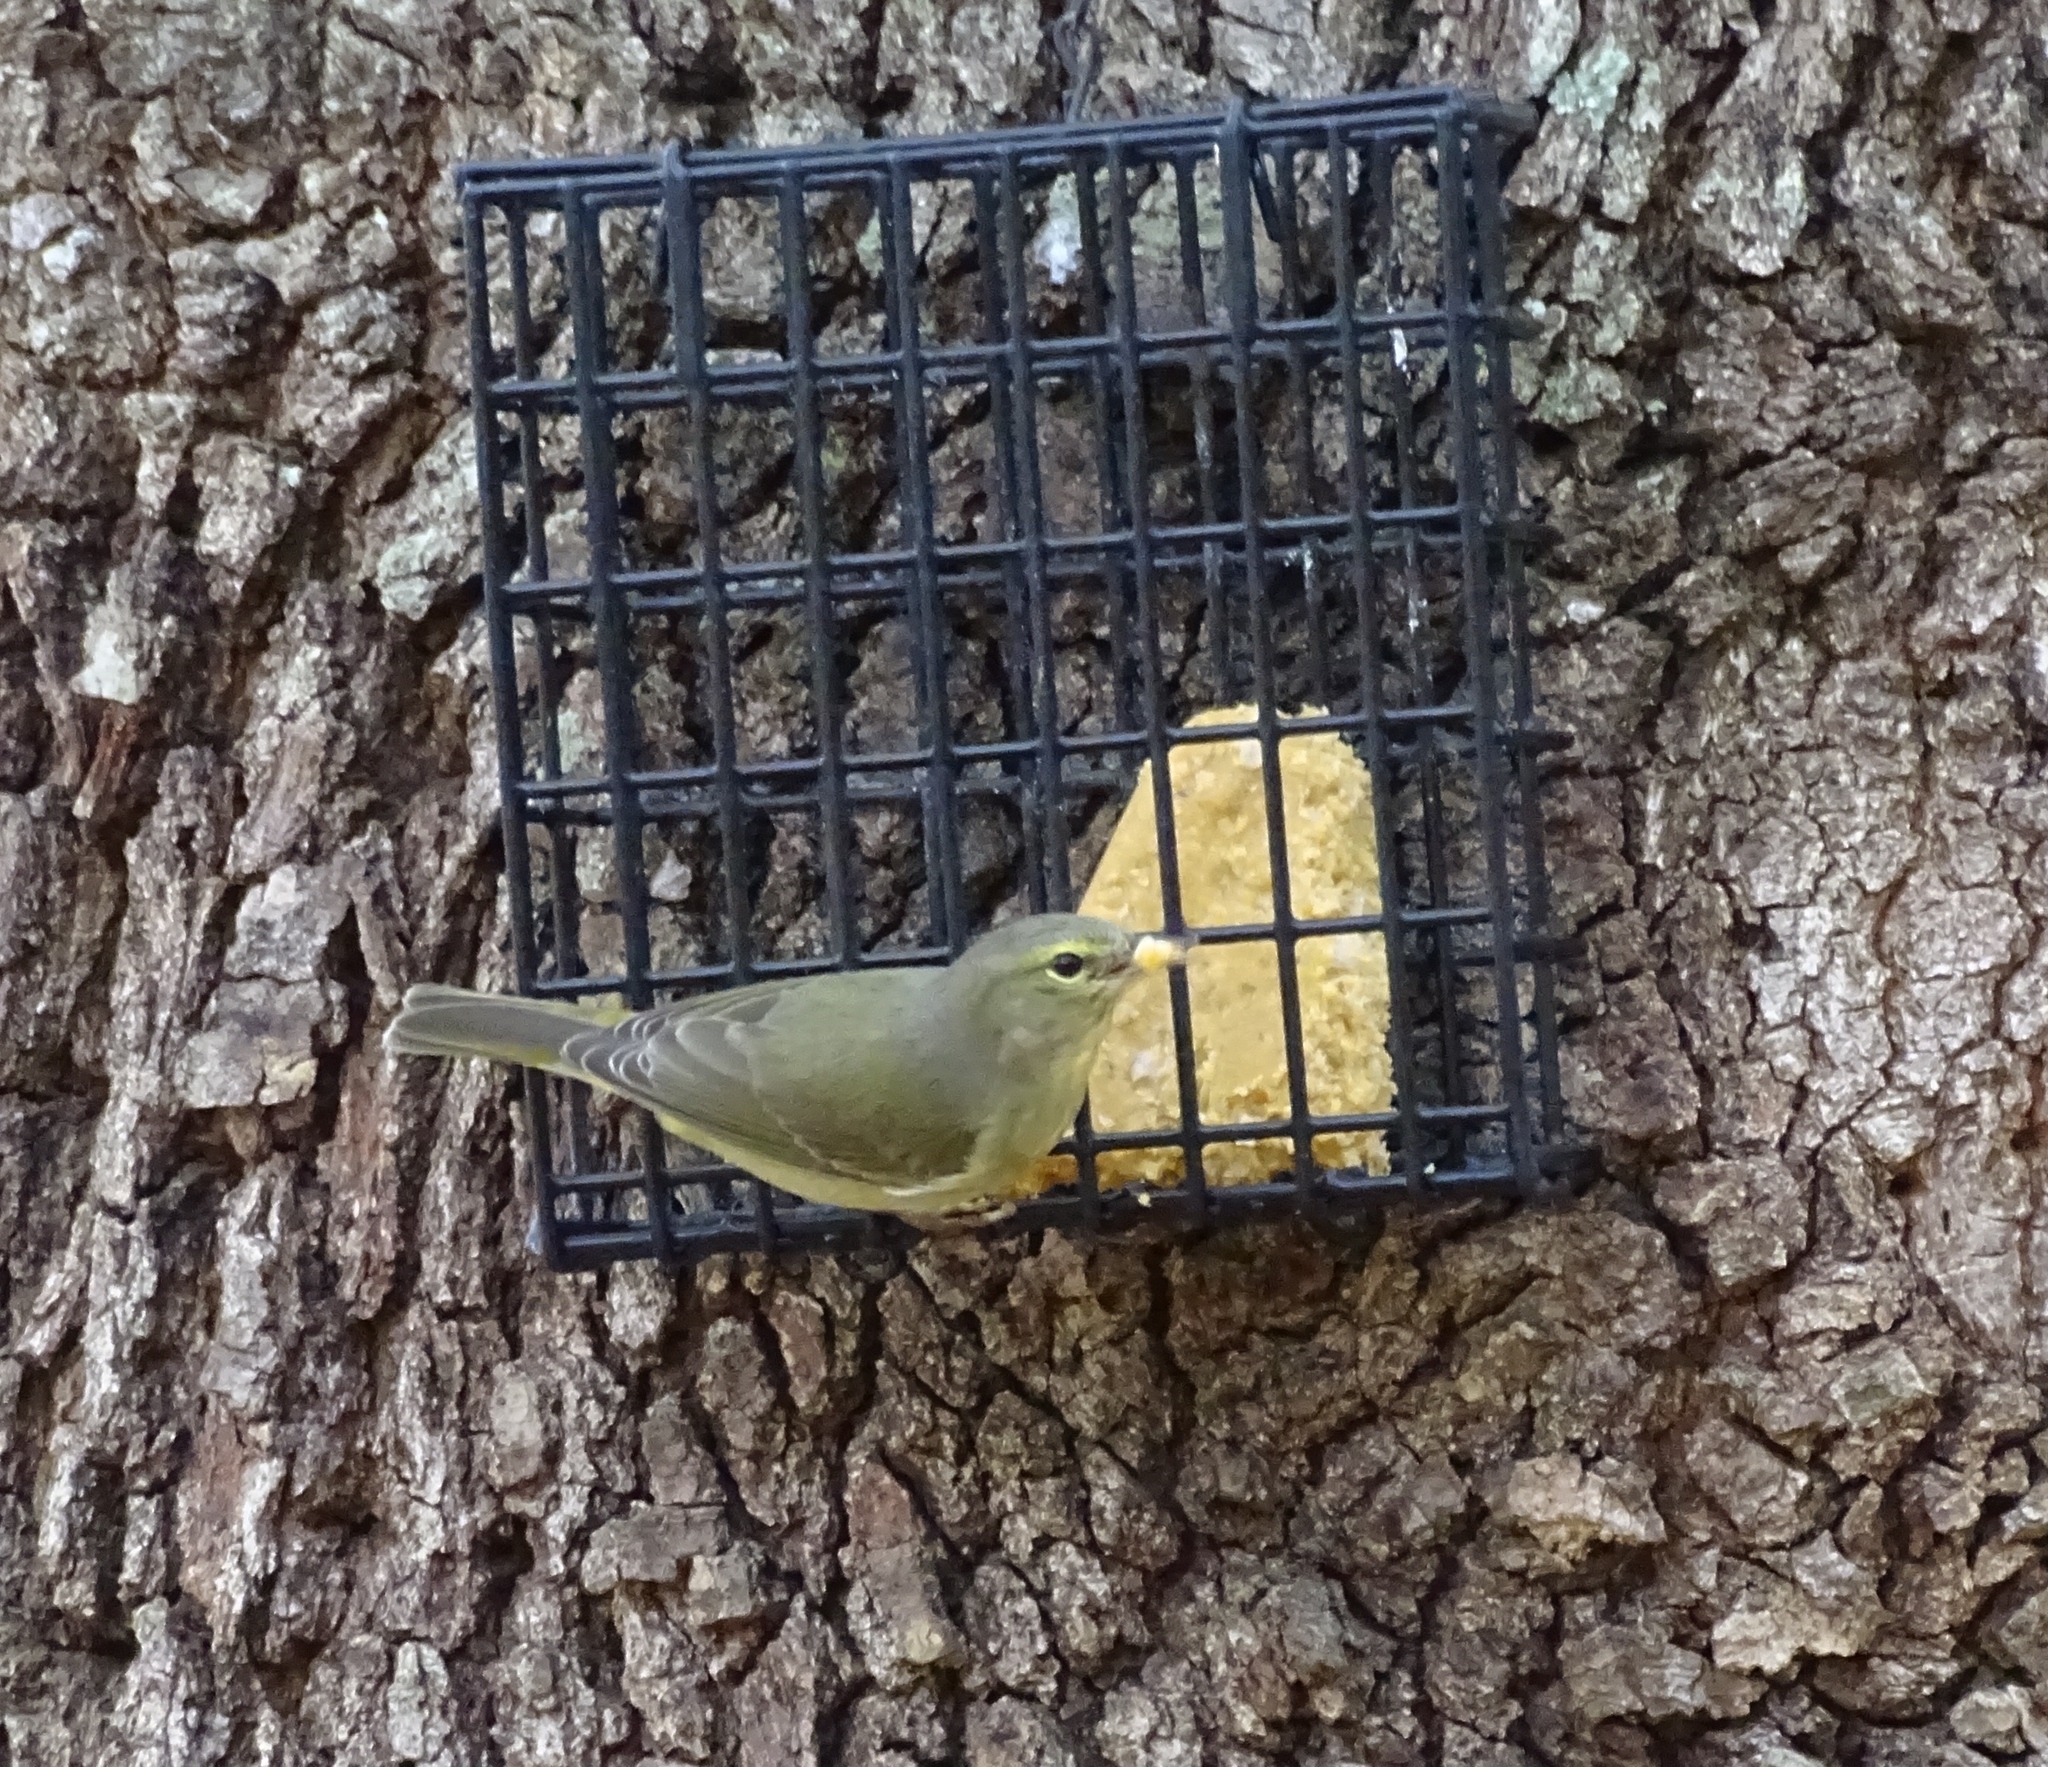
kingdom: Animalia
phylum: Chordata
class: Aves
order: Passeriformes
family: Parulidae
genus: Leiothlypis
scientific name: Leiothlypis celata
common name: Orange-crowned warbler
